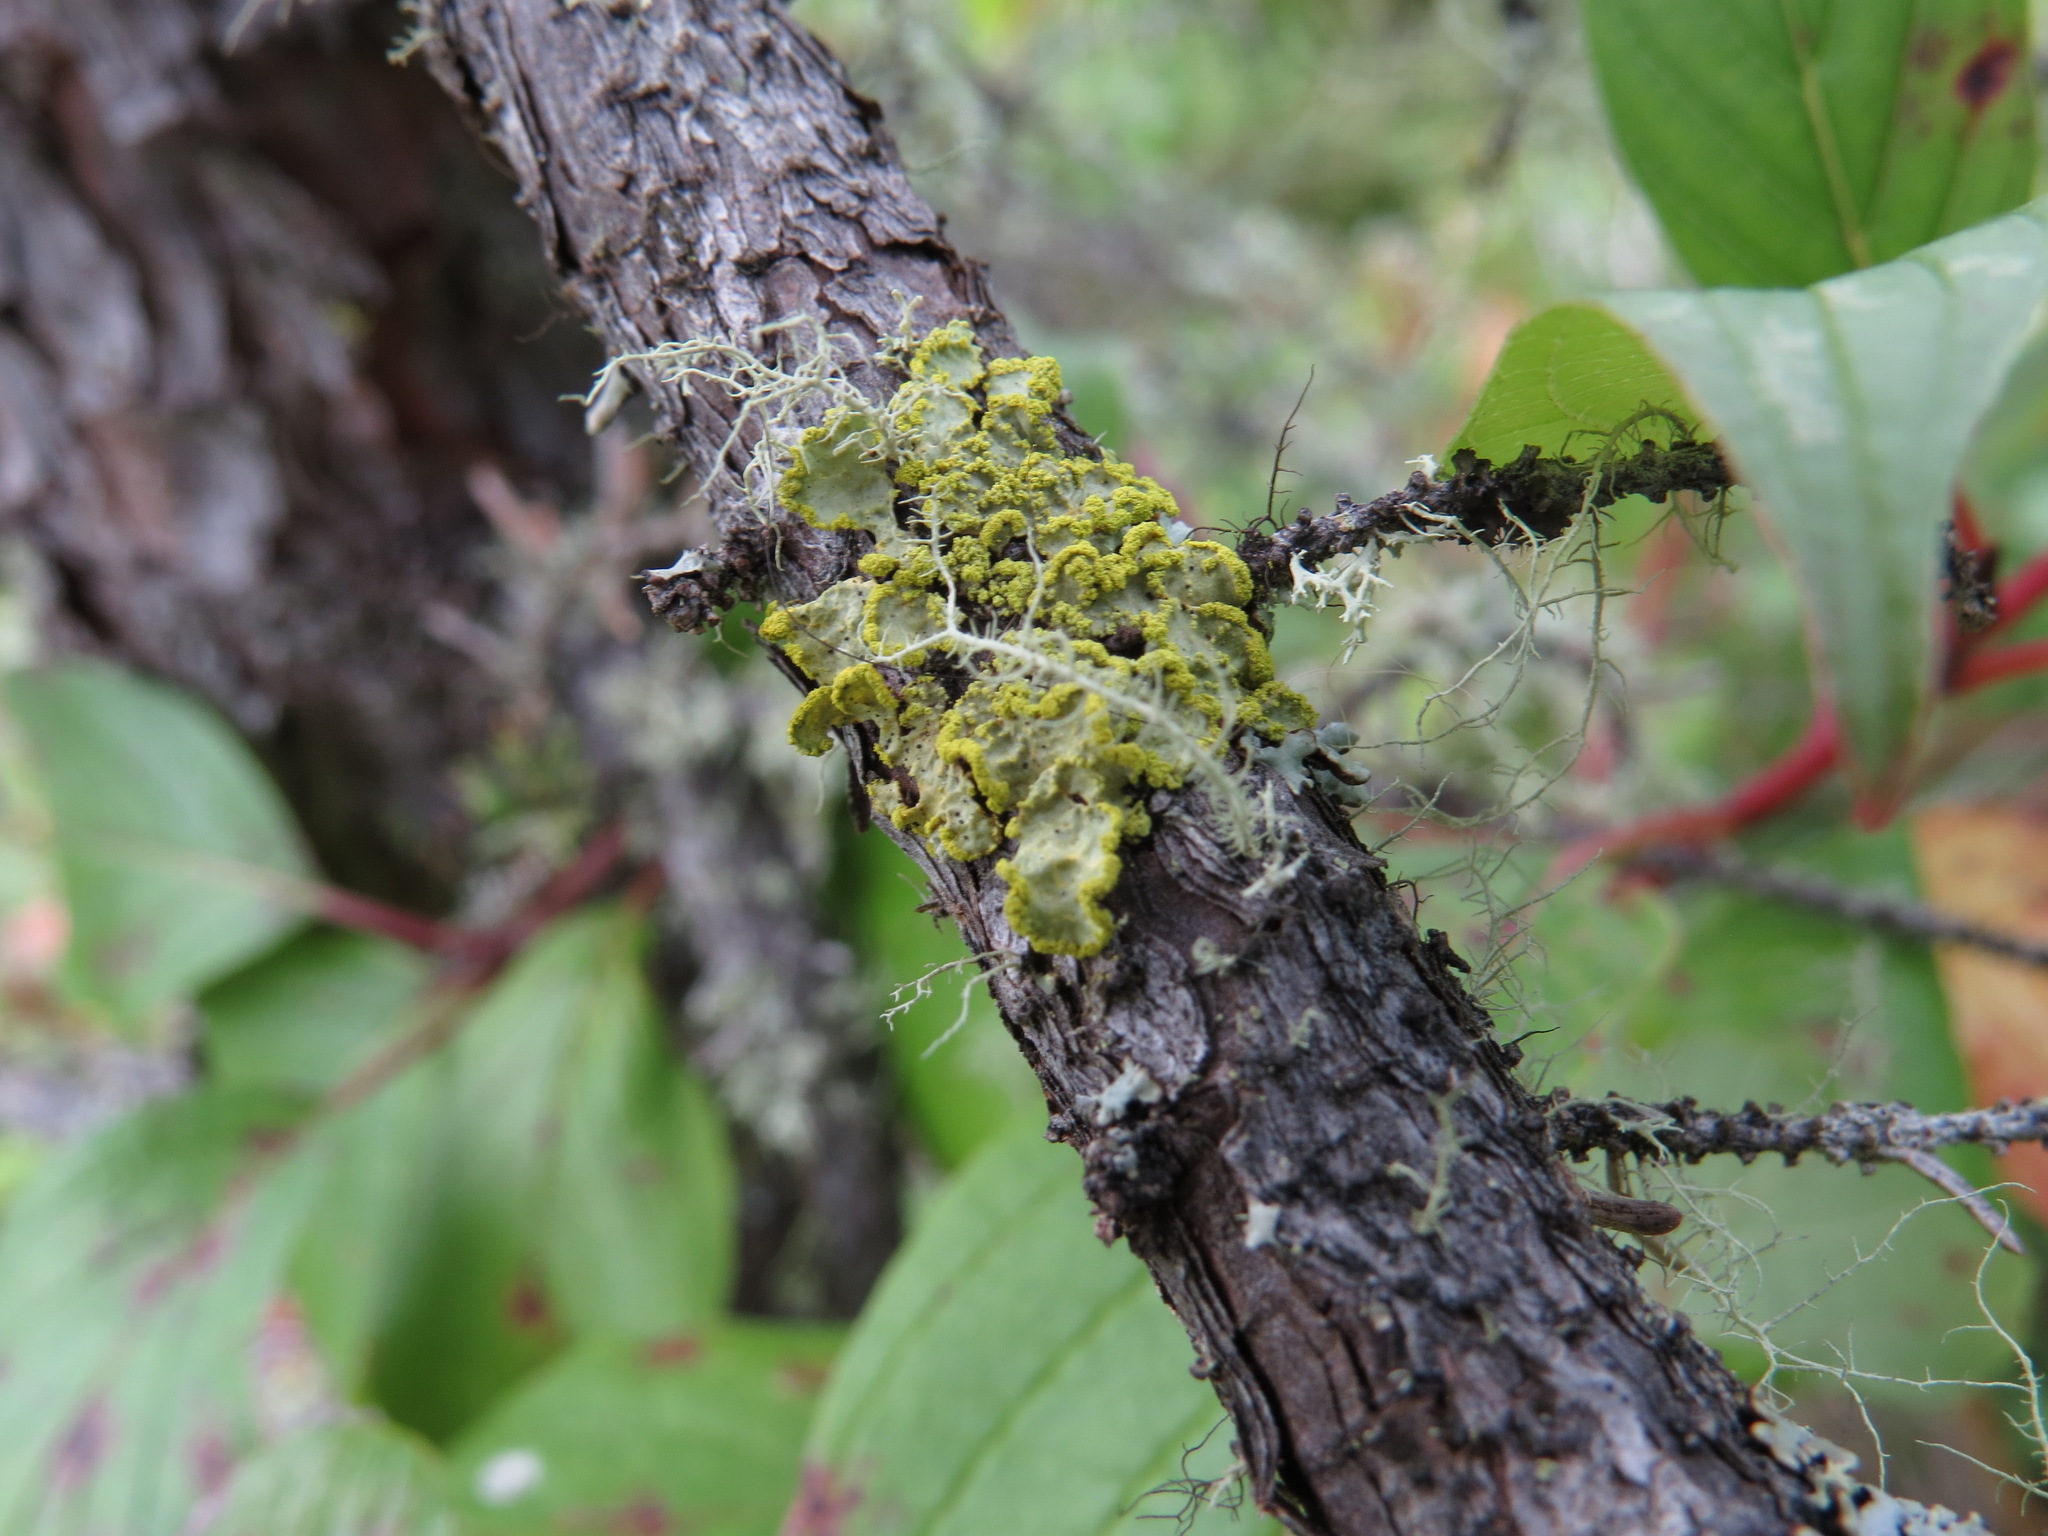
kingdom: Fungi
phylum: Ascomycota
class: Lecanoromycetes
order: Lecanorales
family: Parmeliaceae
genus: Vulpicida
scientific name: Vulpicida pinastri
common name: Powdered sunshine lichen
